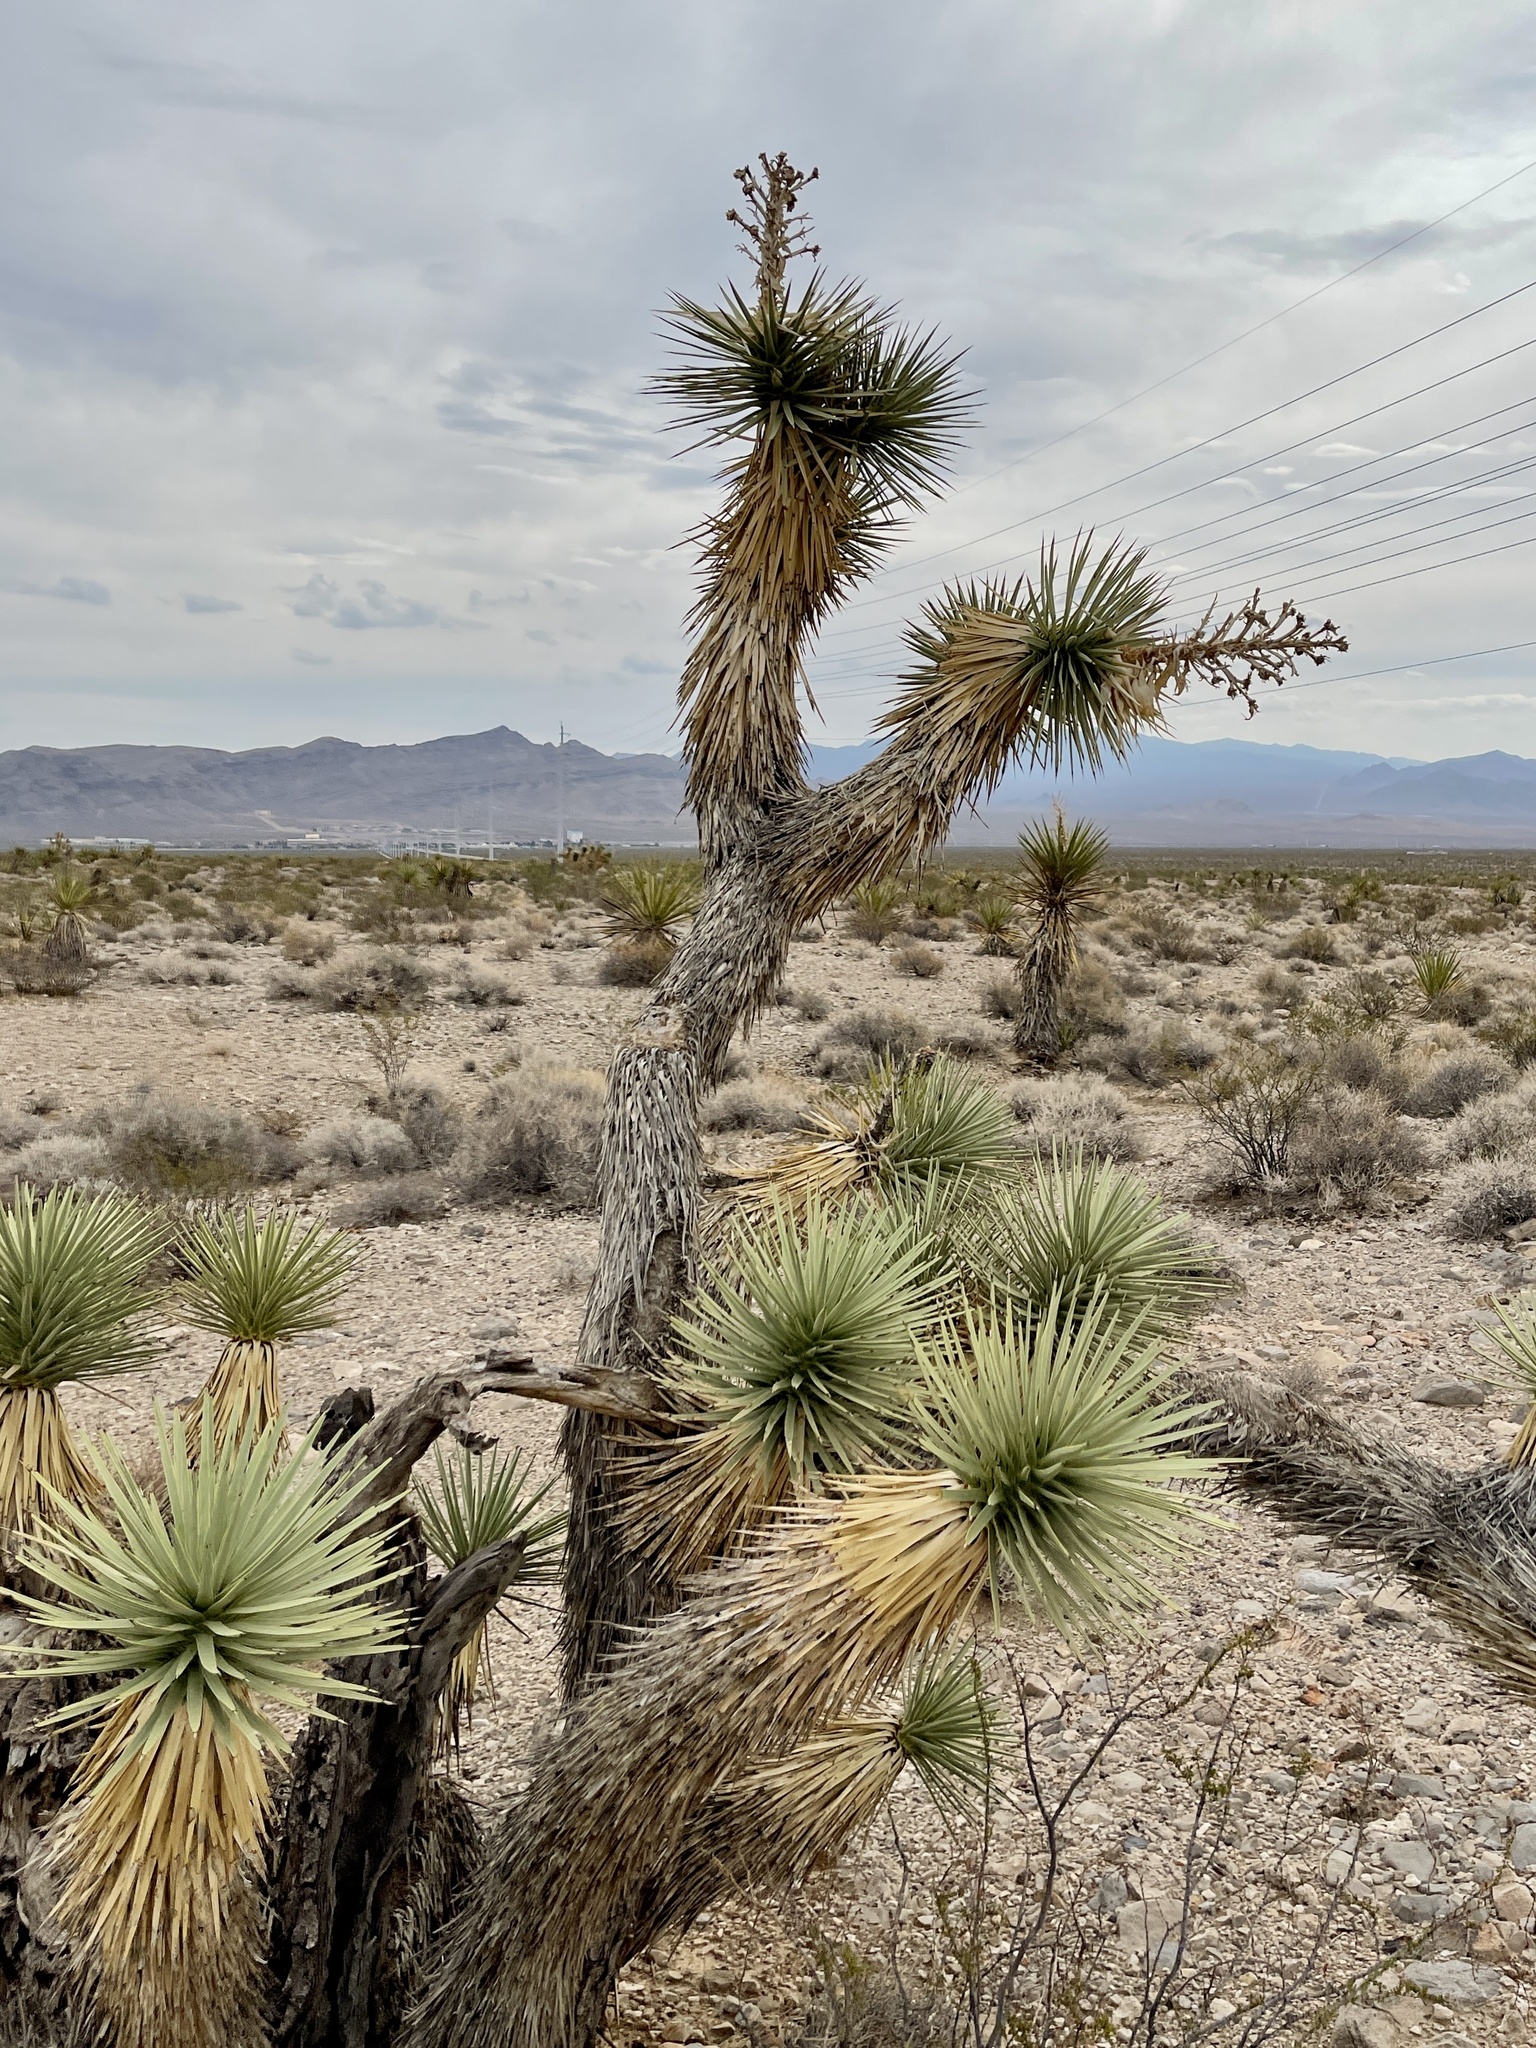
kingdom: Plantae
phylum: Tracheophyta
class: Liliopsida
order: Asparagales
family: Asparagaceae
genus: Yucca
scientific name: Yucca brevifolia
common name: Joshua tree
